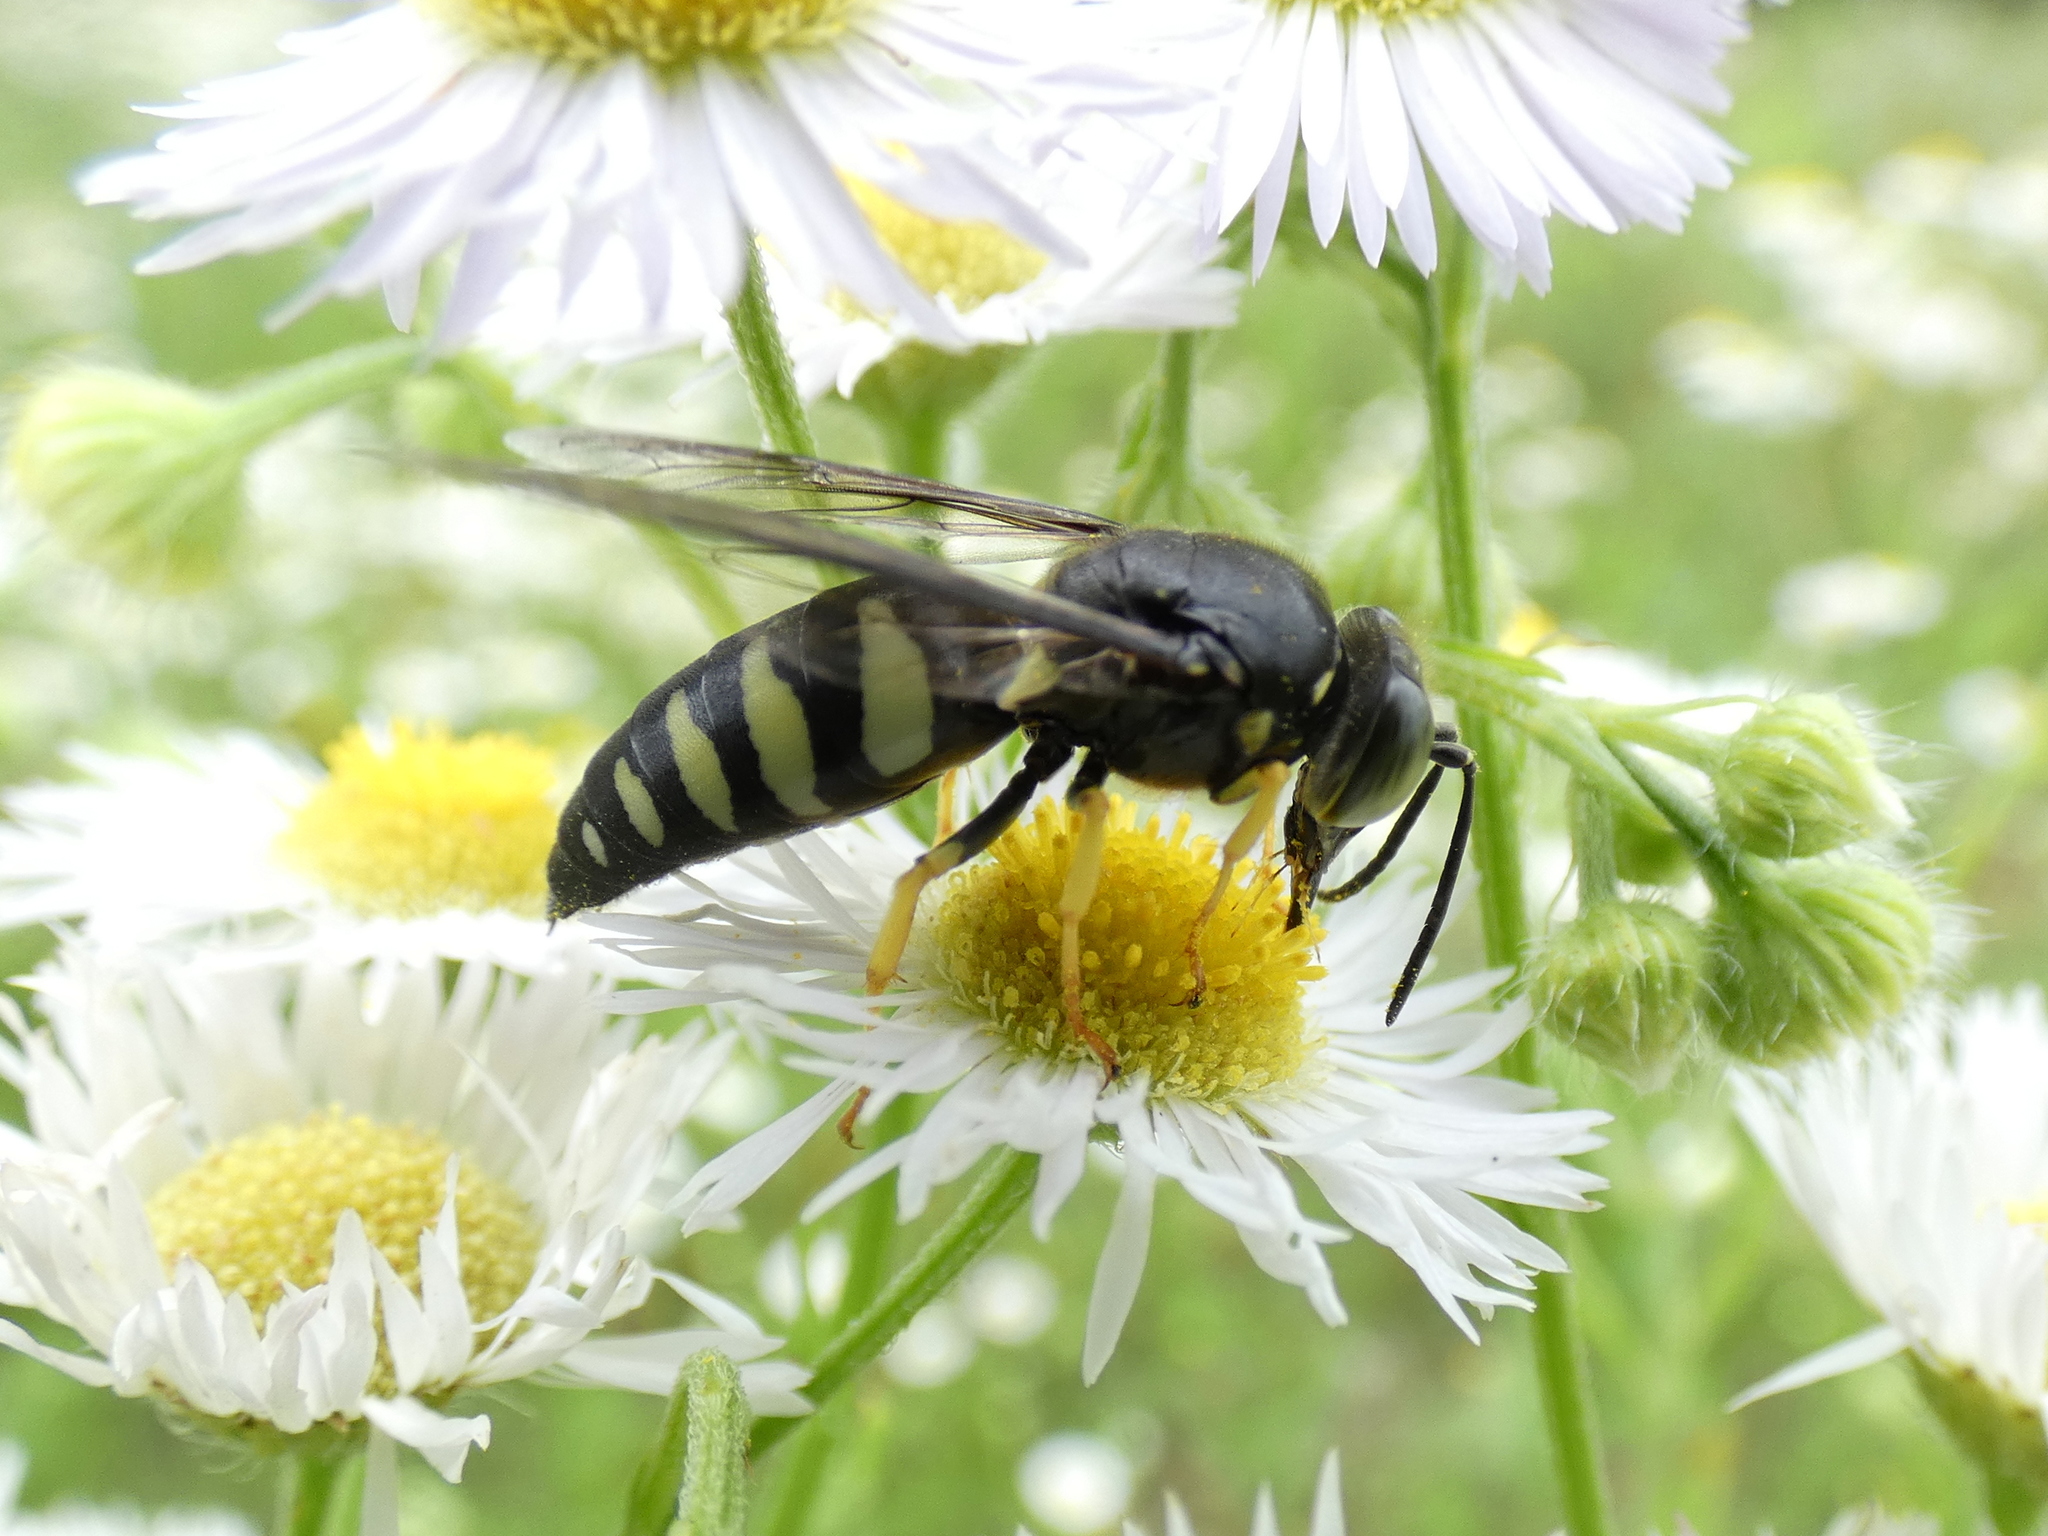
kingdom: Animalia
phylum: Arthropoda
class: Insecta
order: Hymenoptera
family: Crabronidae
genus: Bicyrtes
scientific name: Bicyrtes quadrifasciatus
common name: Four-banded stink bug hunter wasp
